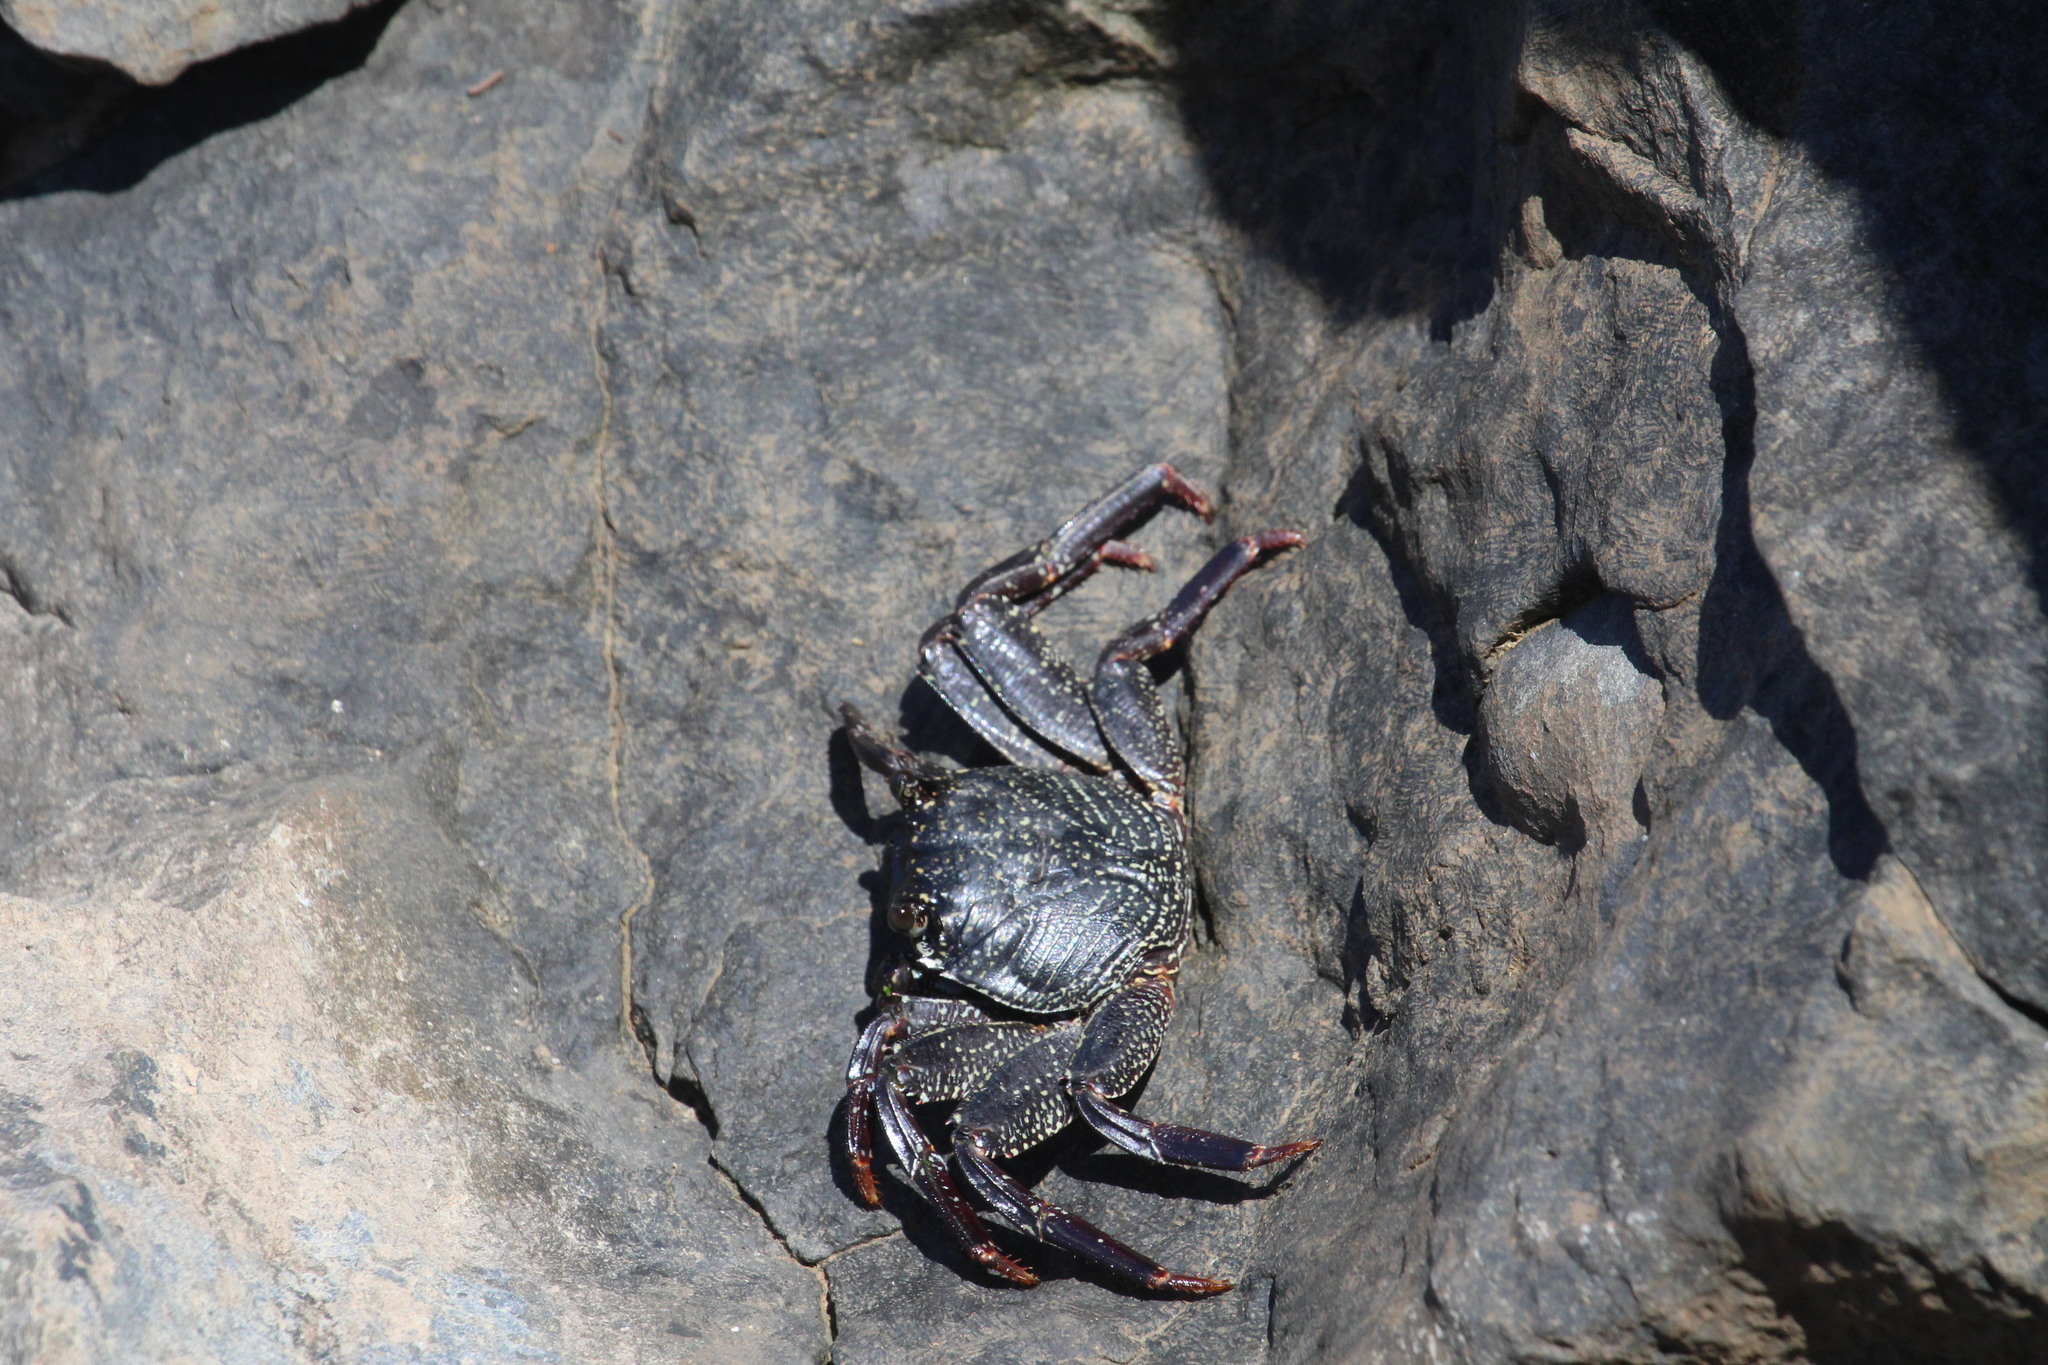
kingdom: Animalia
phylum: Arthropoda
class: Malacostraca
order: Decapoda
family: Grapsidae
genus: Grapsus
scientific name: Grapsus tenuicrustatus
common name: Natal lightfoot crab
